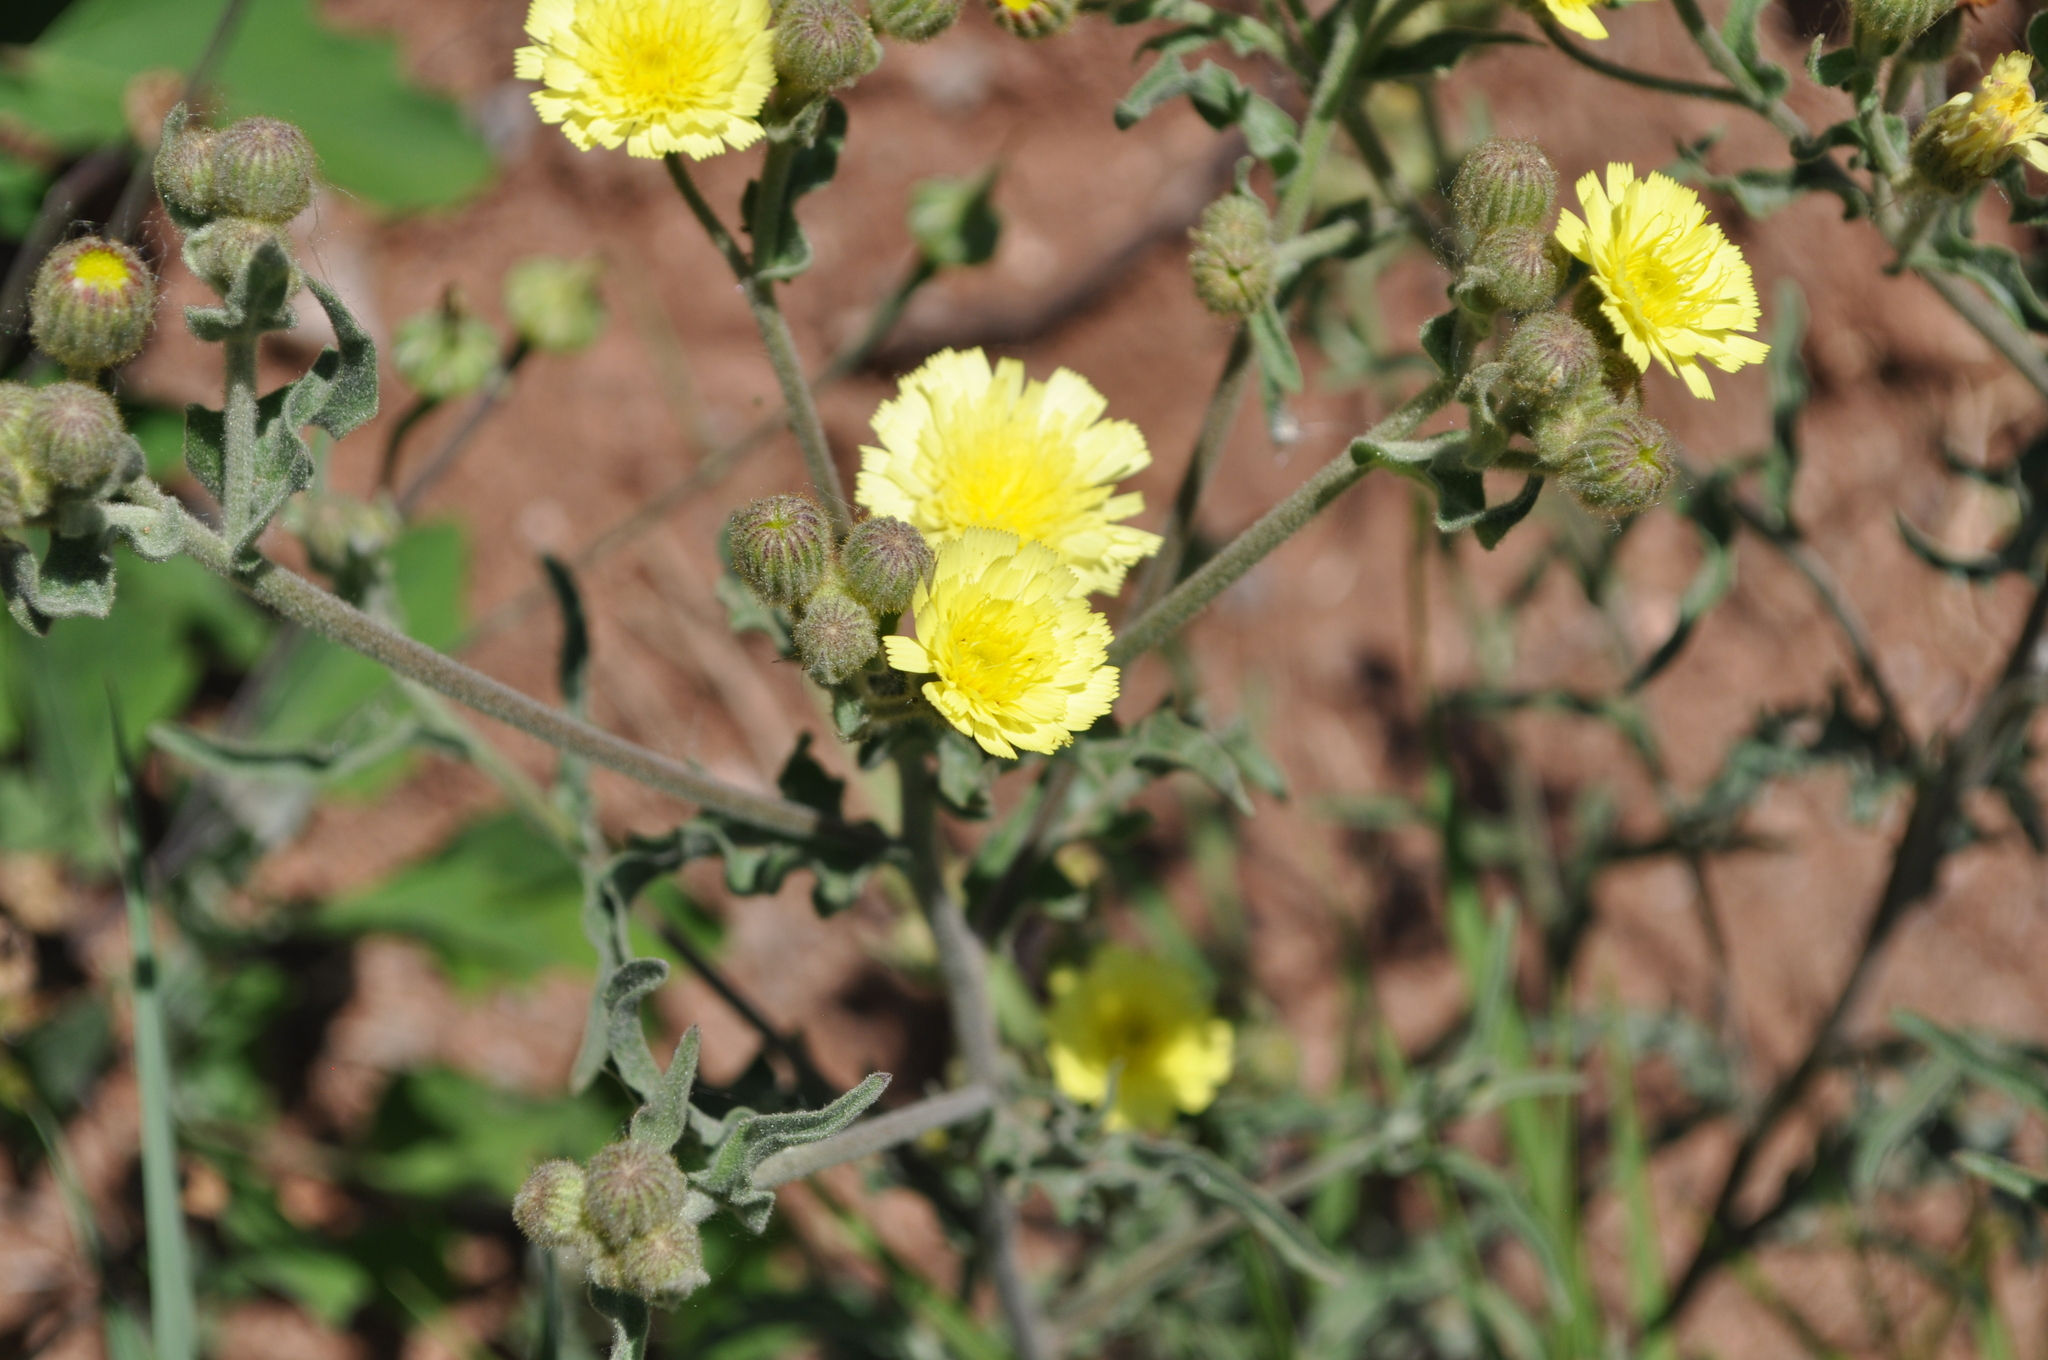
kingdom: Plantae
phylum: Tracheophyta
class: Magnoliopsida
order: Asterales
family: Asteraceae
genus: Andryala
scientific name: Andryala integrifolia
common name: Common andryala
